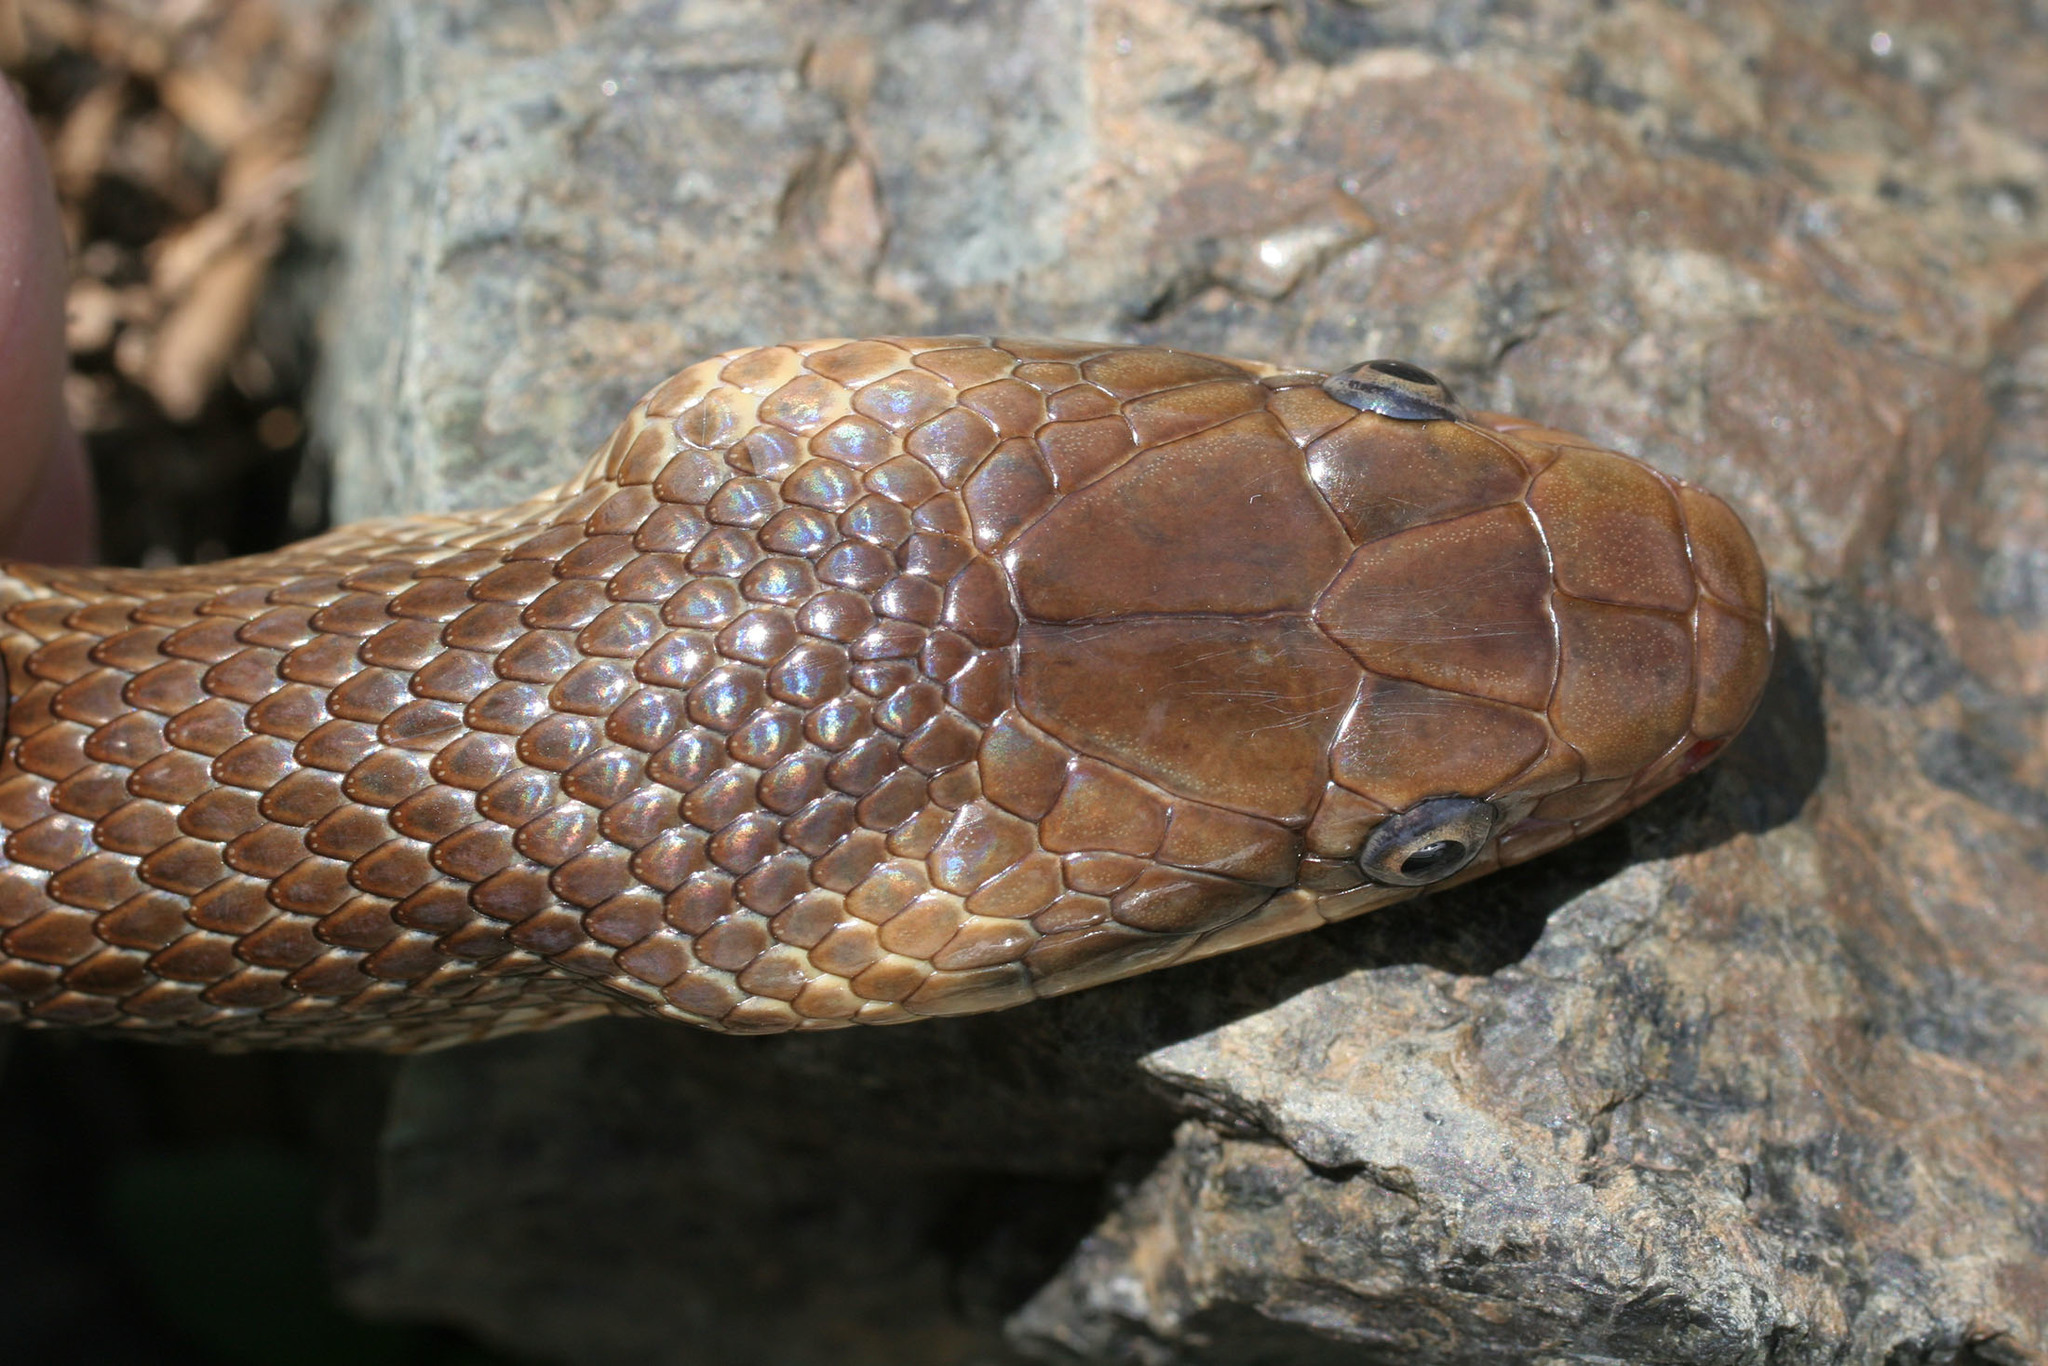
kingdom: Animalia
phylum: Chordata
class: Squamata
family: Colubridae
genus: Zamenis
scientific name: Zamenis longissimus
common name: Aesculapean snake
